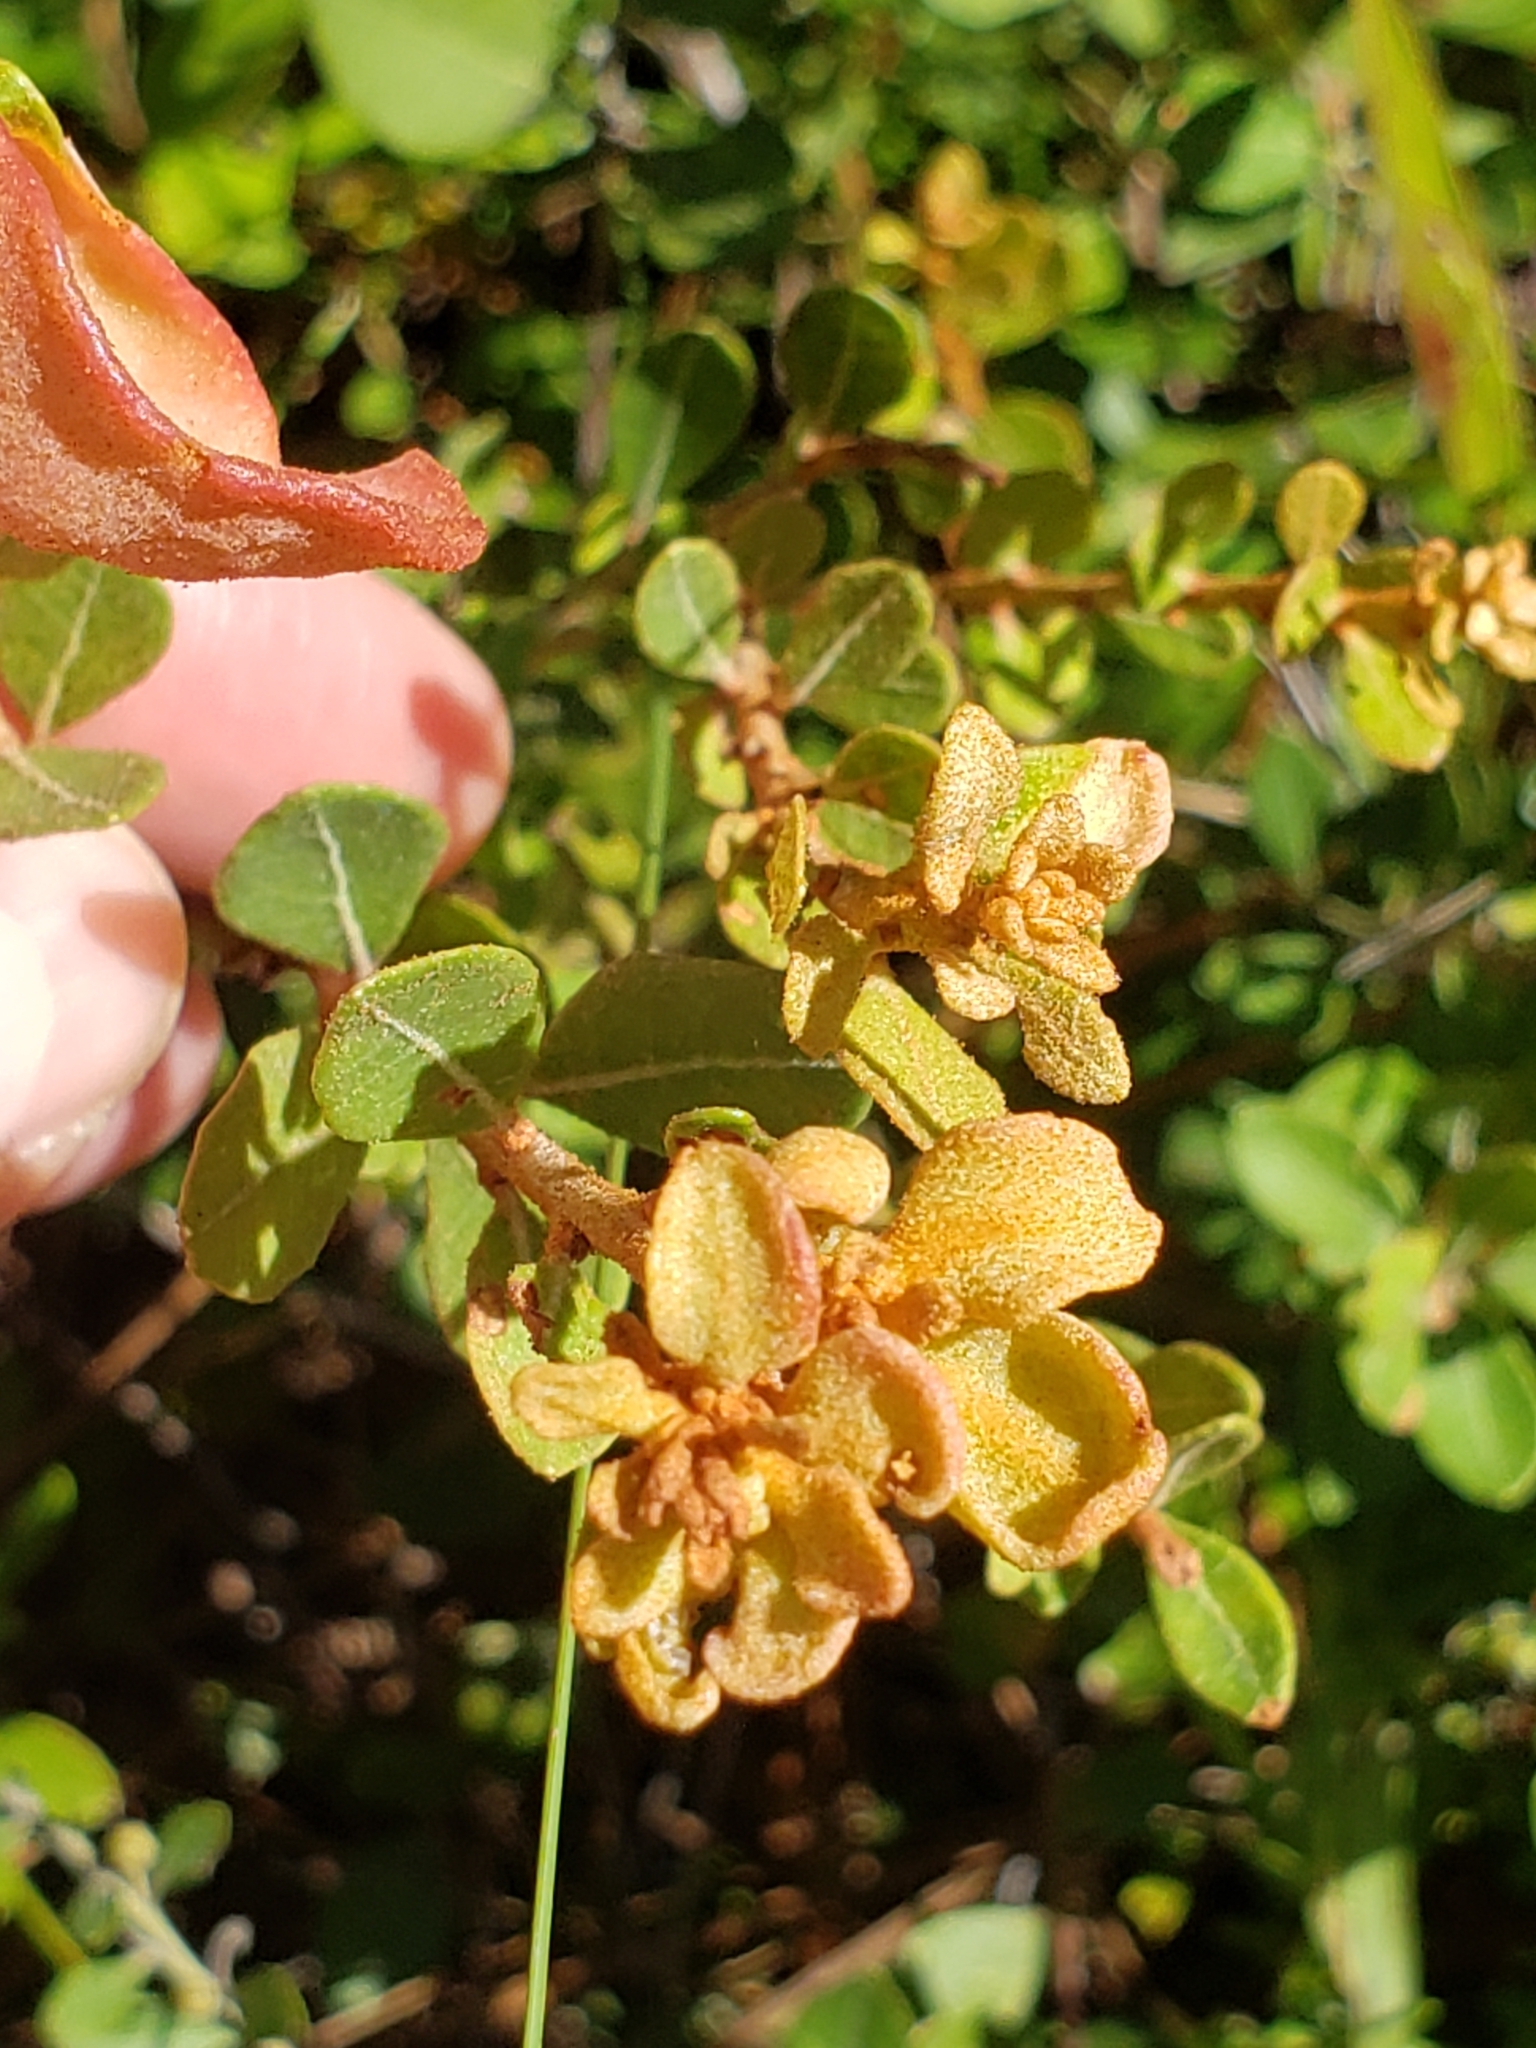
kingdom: Plantae
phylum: Tracheophyta
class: Magnoliopsida
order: Ericales
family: Ericaceae
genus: Lyonia
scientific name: Lyonia fruticosa
